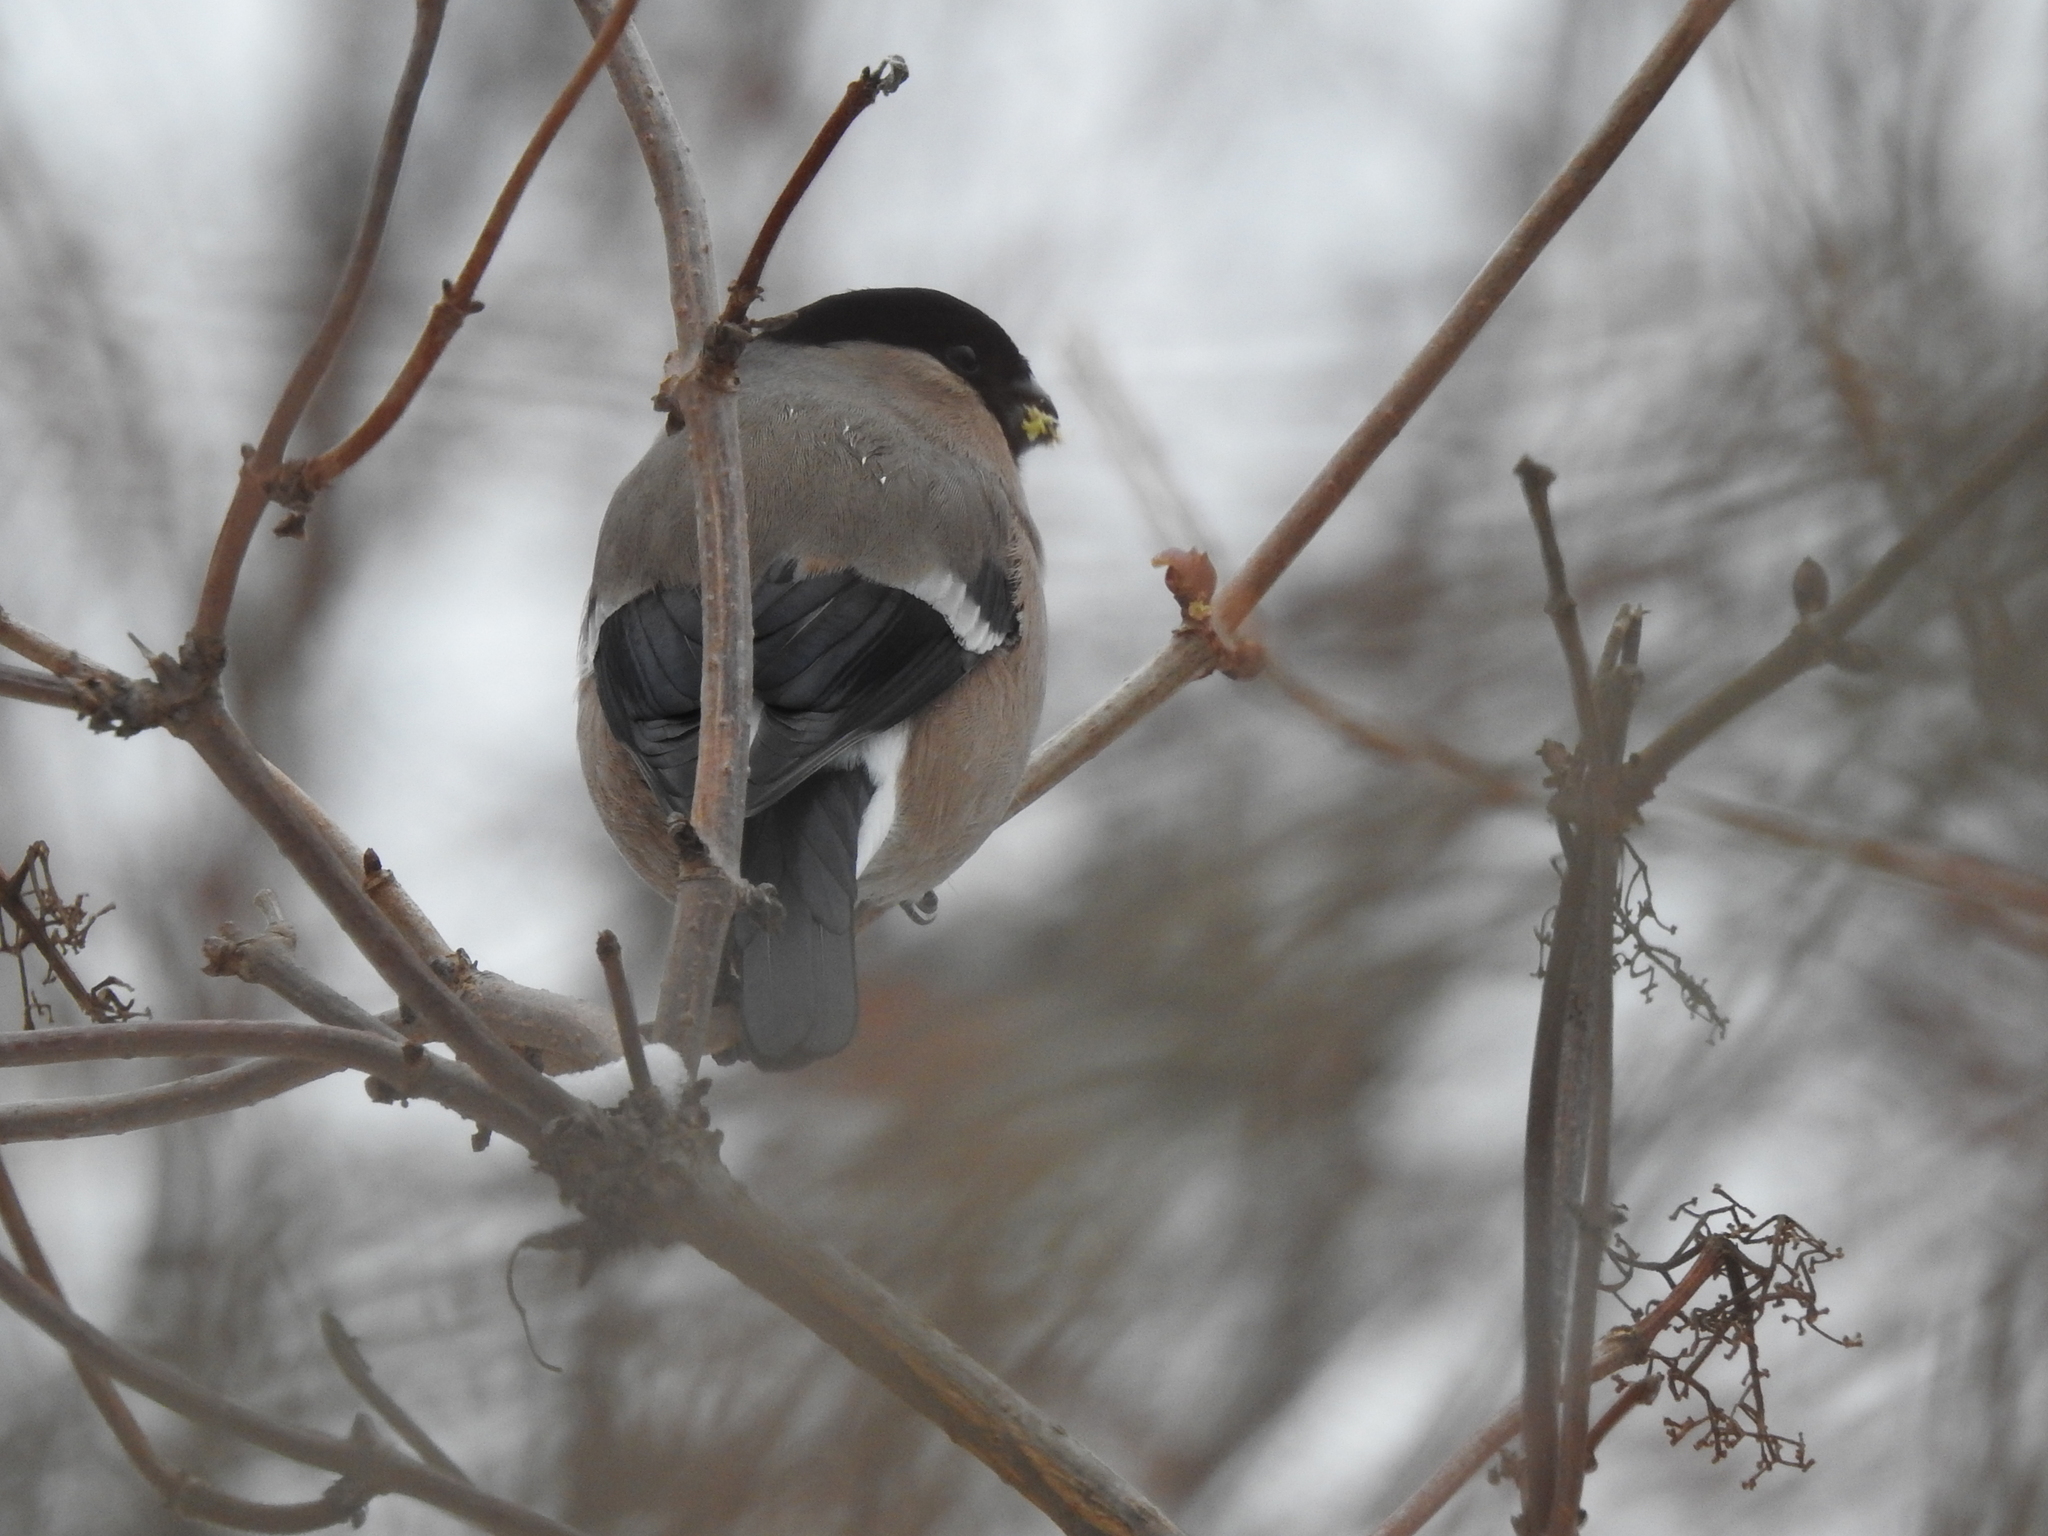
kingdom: Animalia
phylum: Chordata
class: Aves
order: Passeriformes
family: Fringillidae
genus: Pyrrhula
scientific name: Pyrrhula pyrrhula
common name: Eurasian bullfinch
